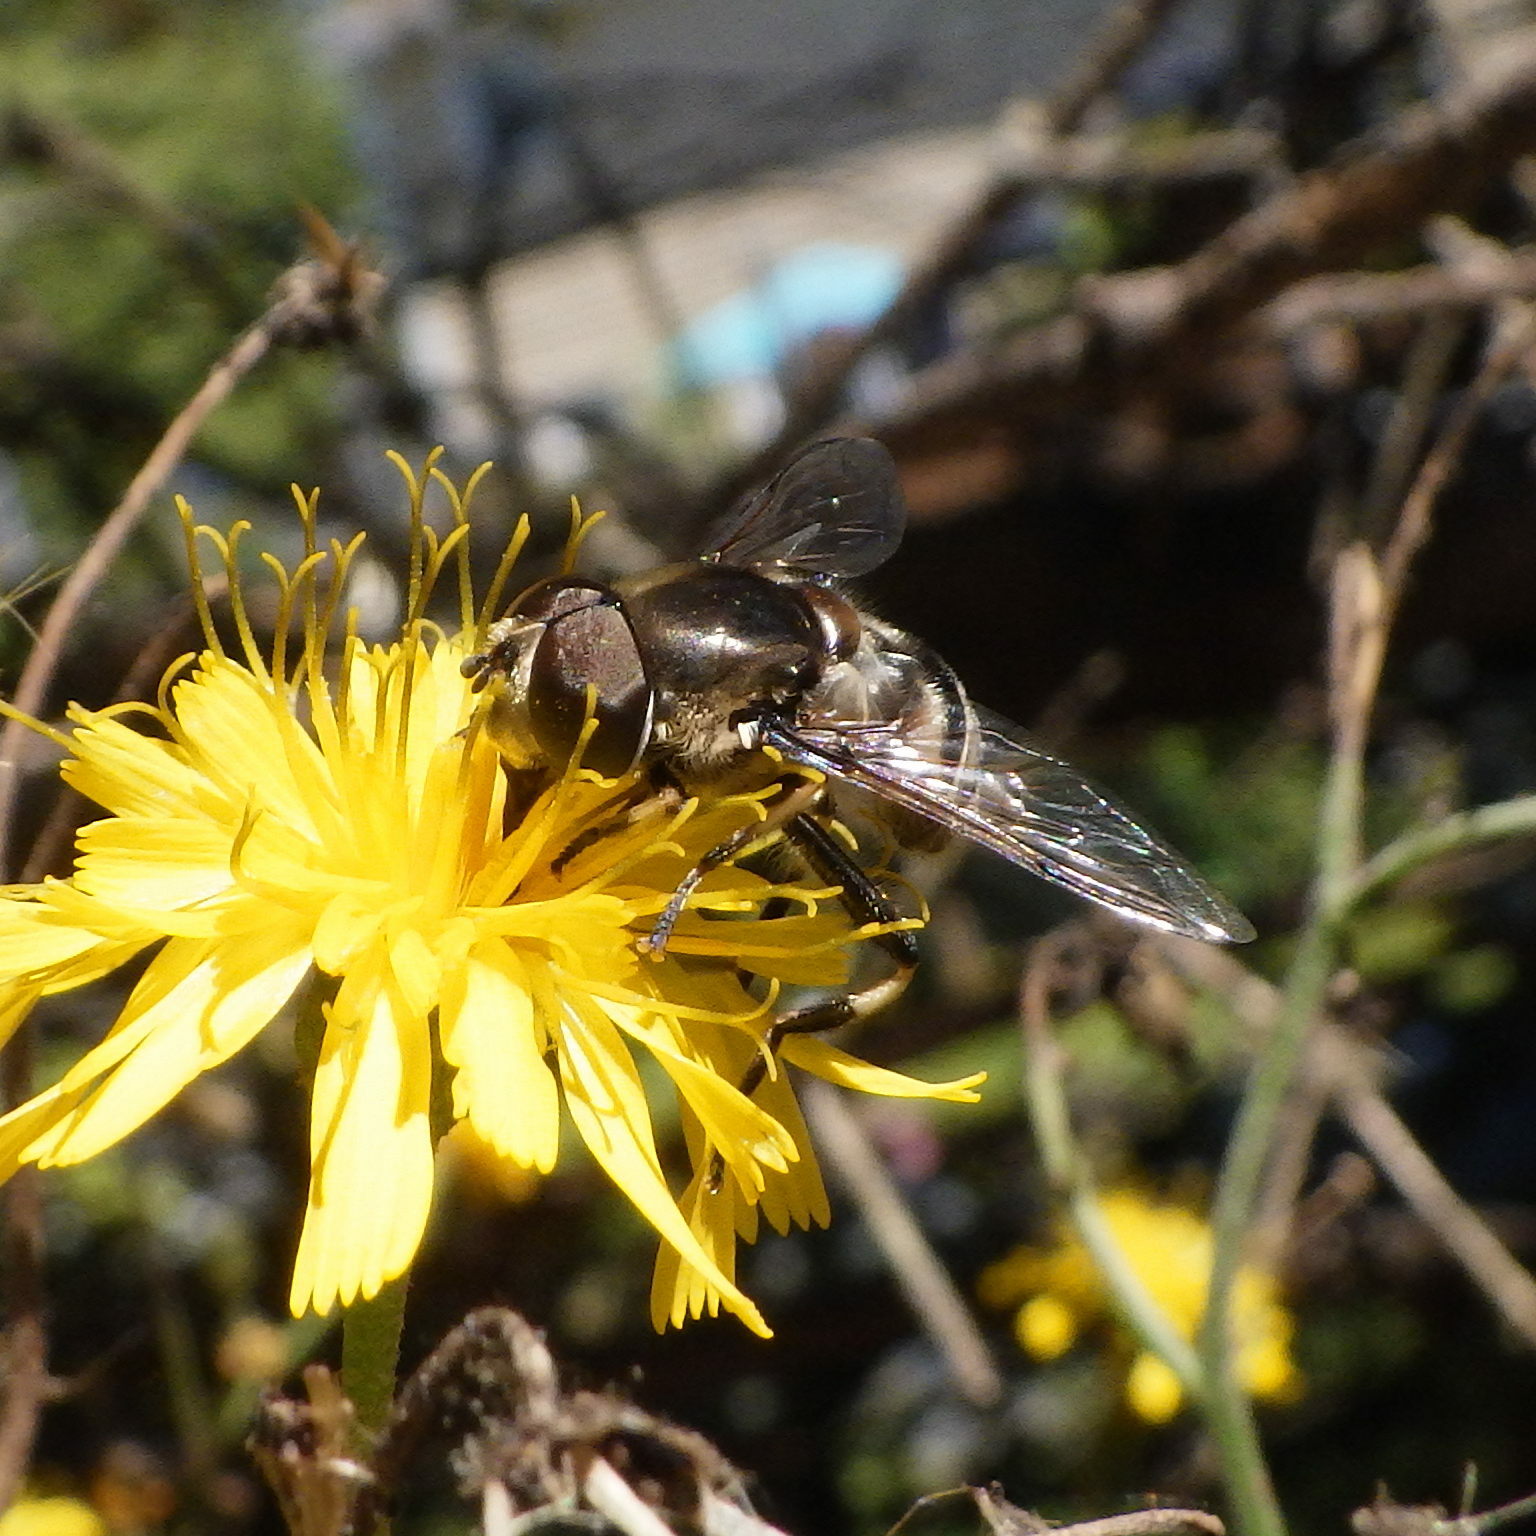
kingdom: Animalia
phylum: Arthropoda
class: Insecta
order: Diptera
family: Syrphidae
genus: Eristalis
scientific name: Eristalis dimidiata
